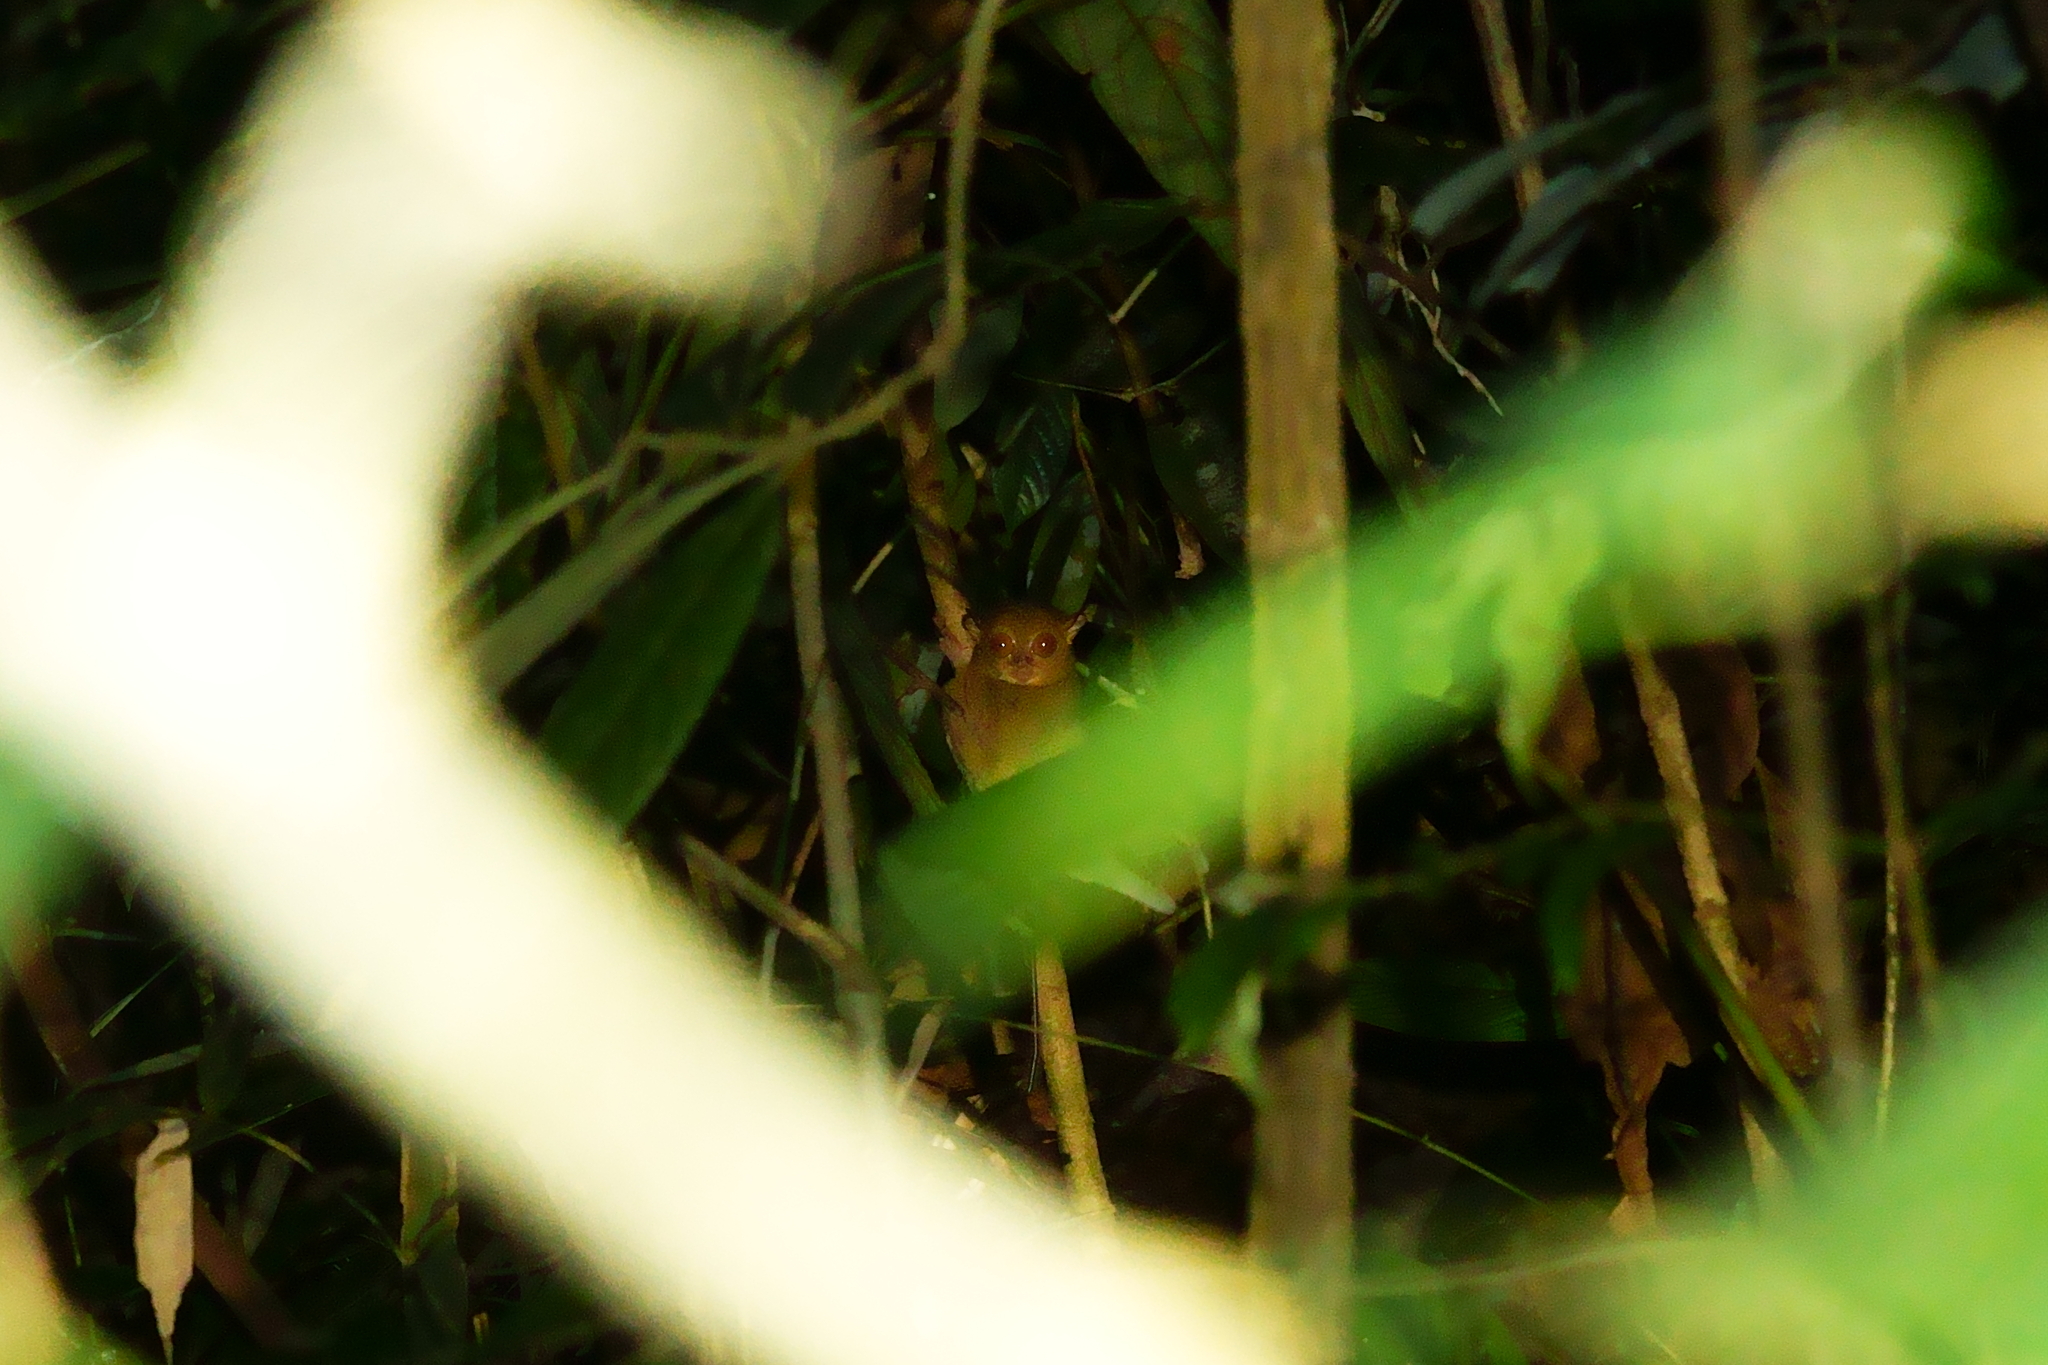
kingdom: Animalia
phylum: Chordata
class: Mammalia
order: Primates
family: Tarsiidae
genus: Cephalopachus
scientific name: Cephalopachus bancanus
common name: Western tarsier
